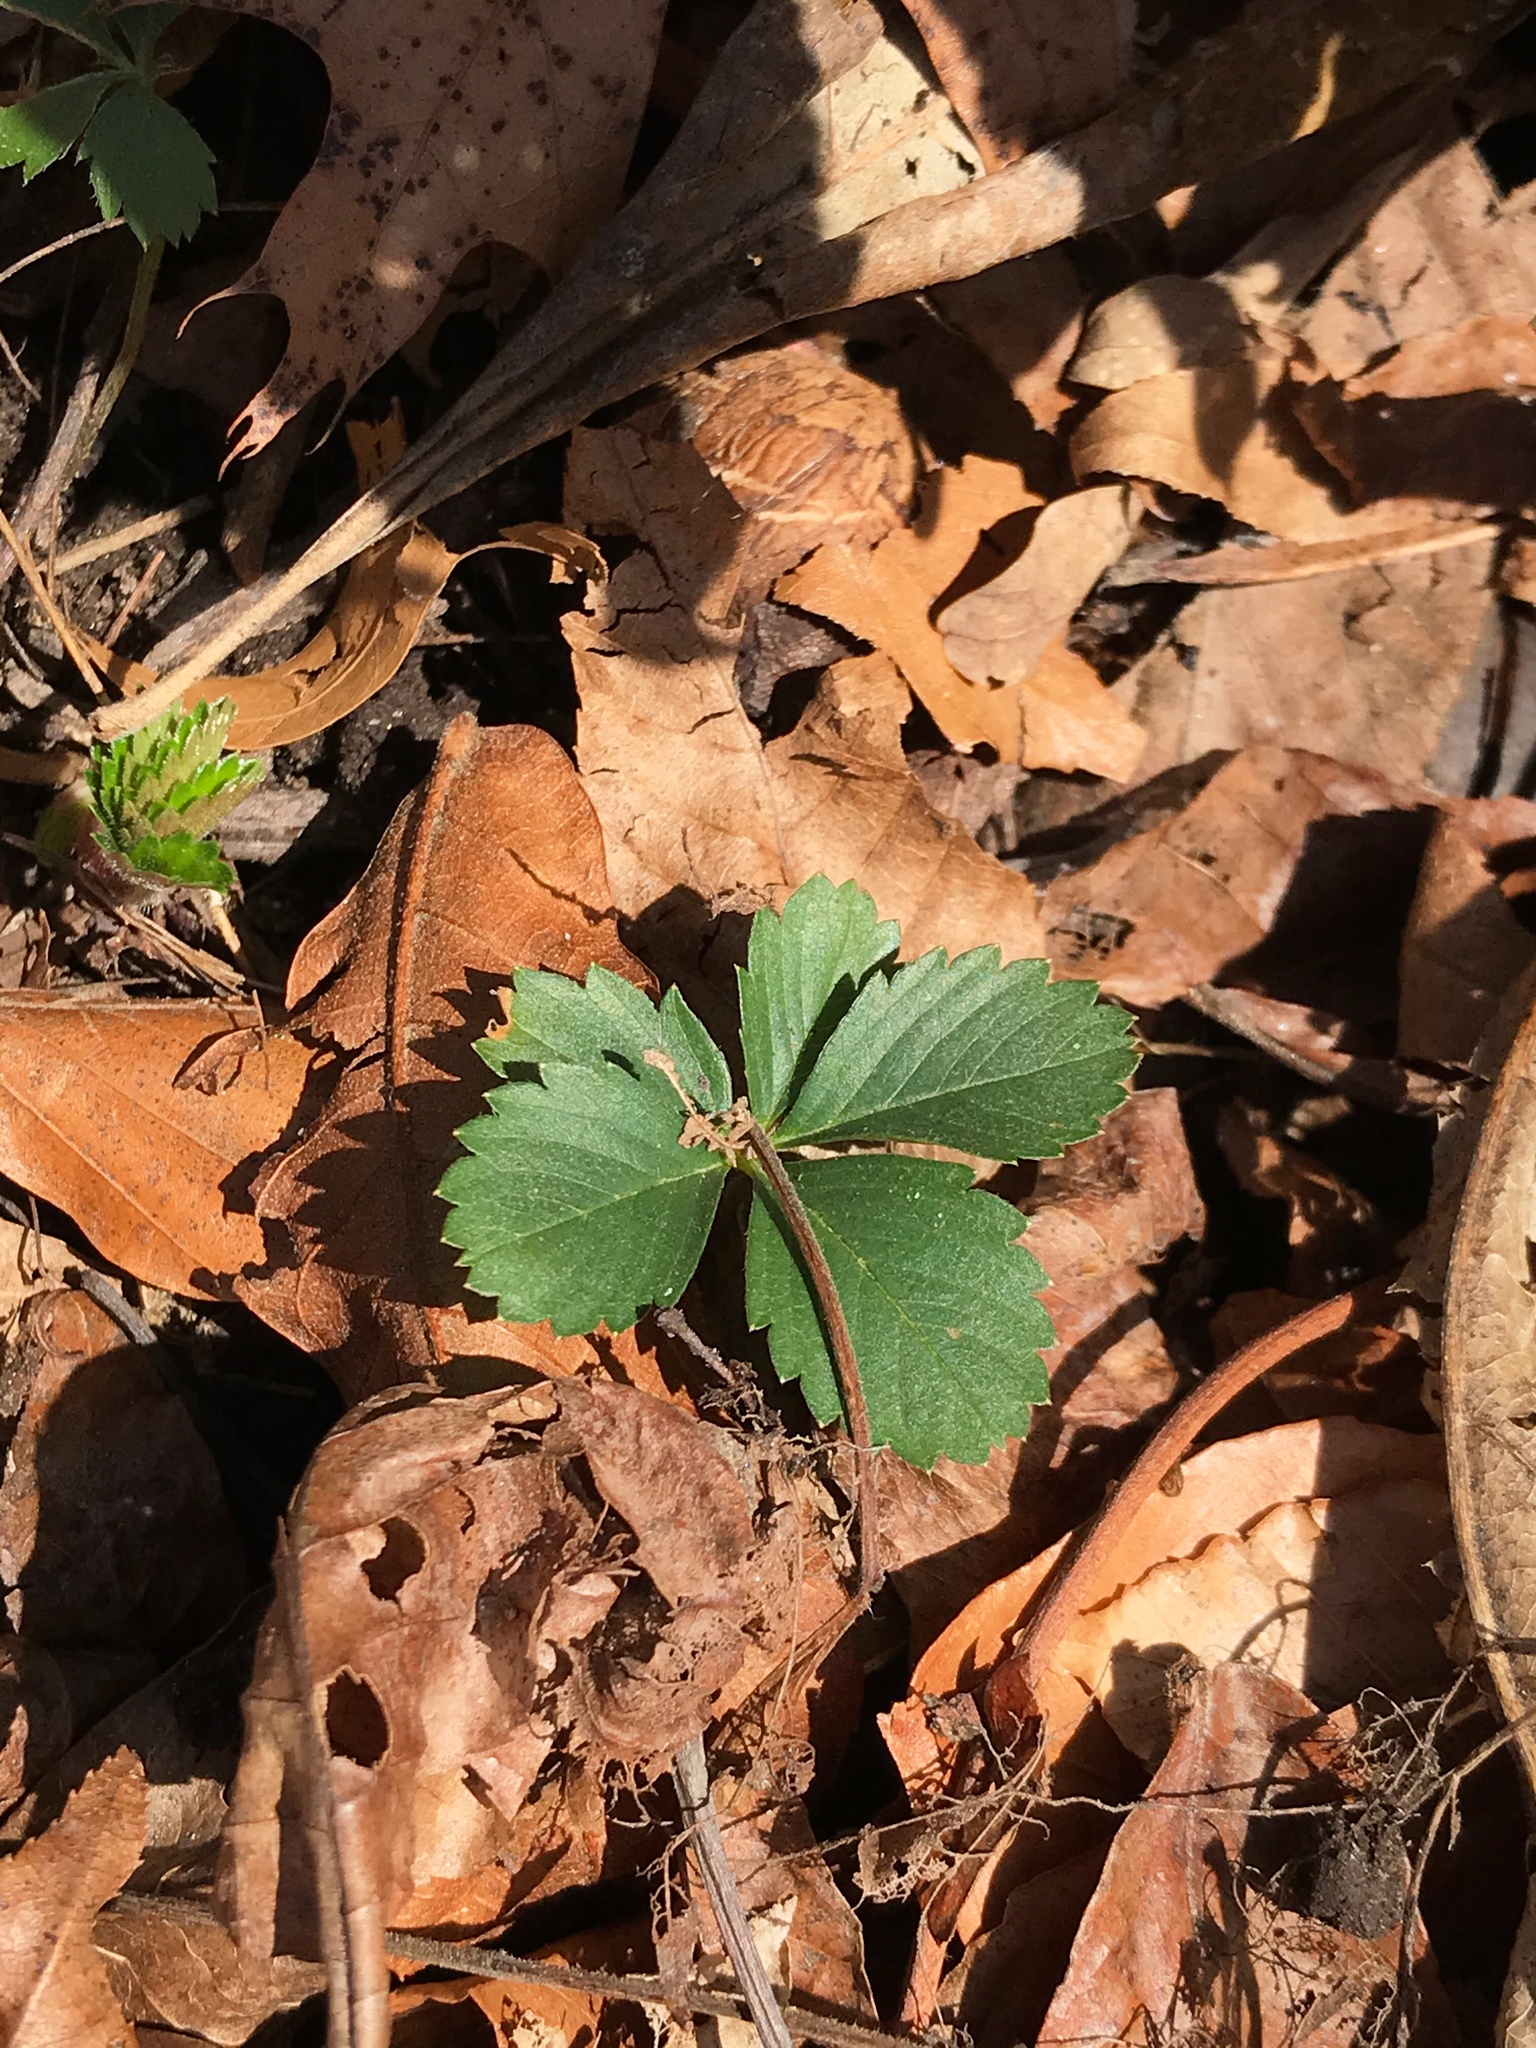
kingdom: Plantae
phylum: Tracheophyta
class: Magnoliopsida
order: Rosales
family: Rosaceae
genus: Potentilla
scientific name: Potentilla canadensis
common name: Canada cinquefoil
